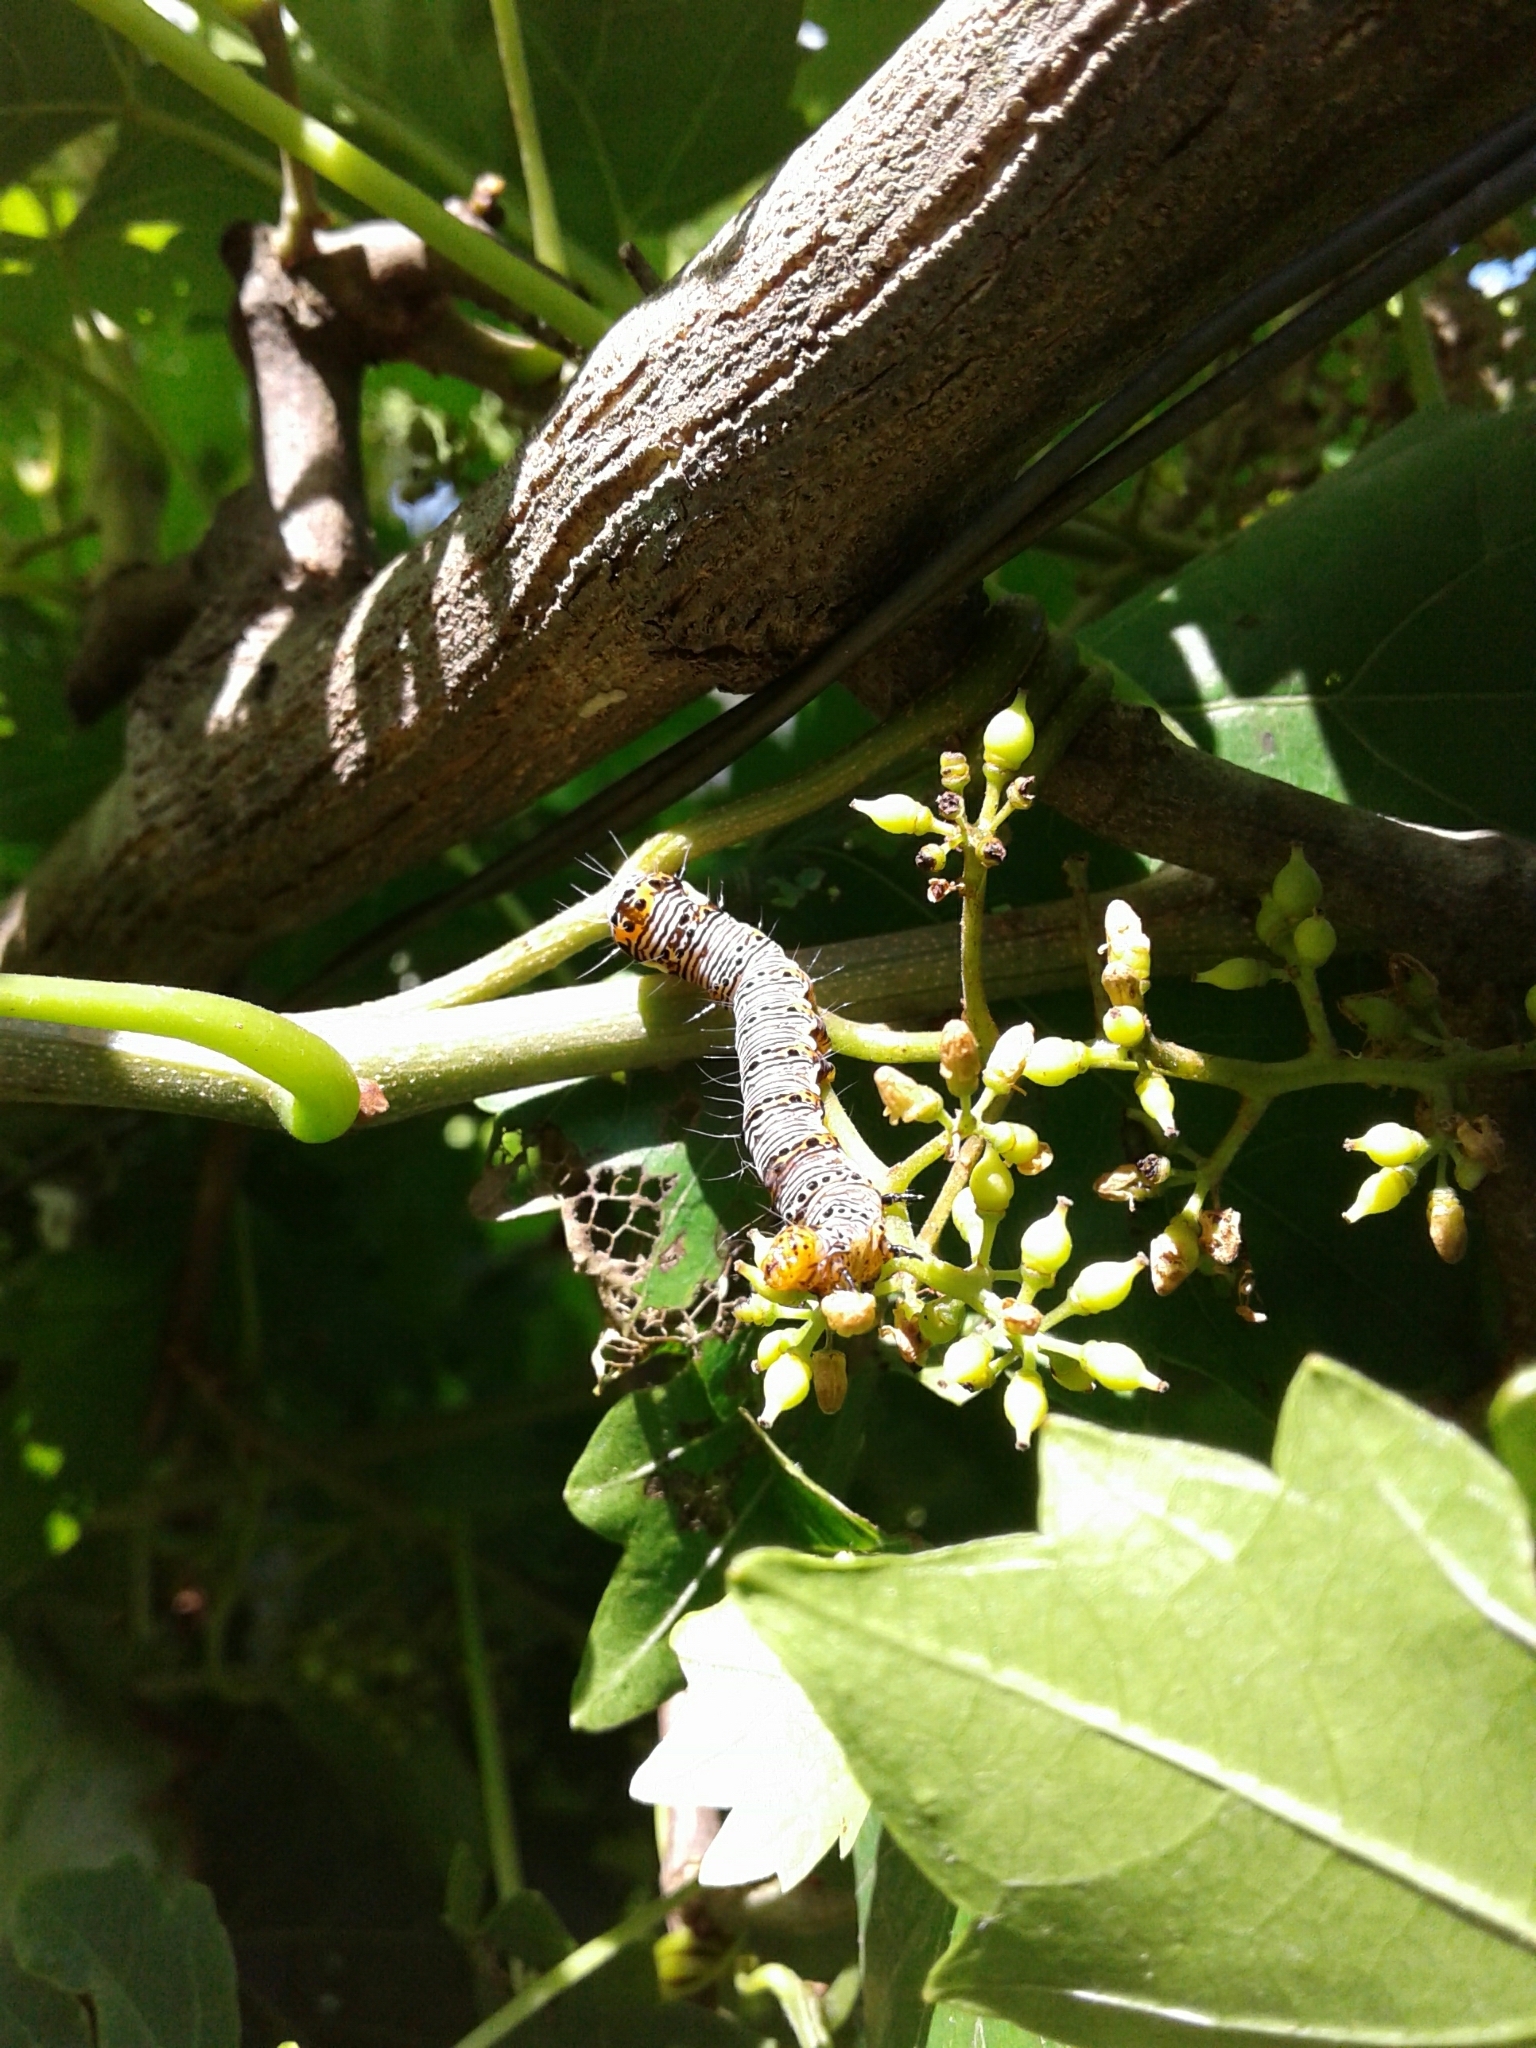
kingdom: Animalia
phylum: Arthropoda
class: Insecta
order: Lepidoptera
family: Noctuidae
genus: Alypia
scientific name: Alypia octomaculata
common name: Eight-spotted forester
